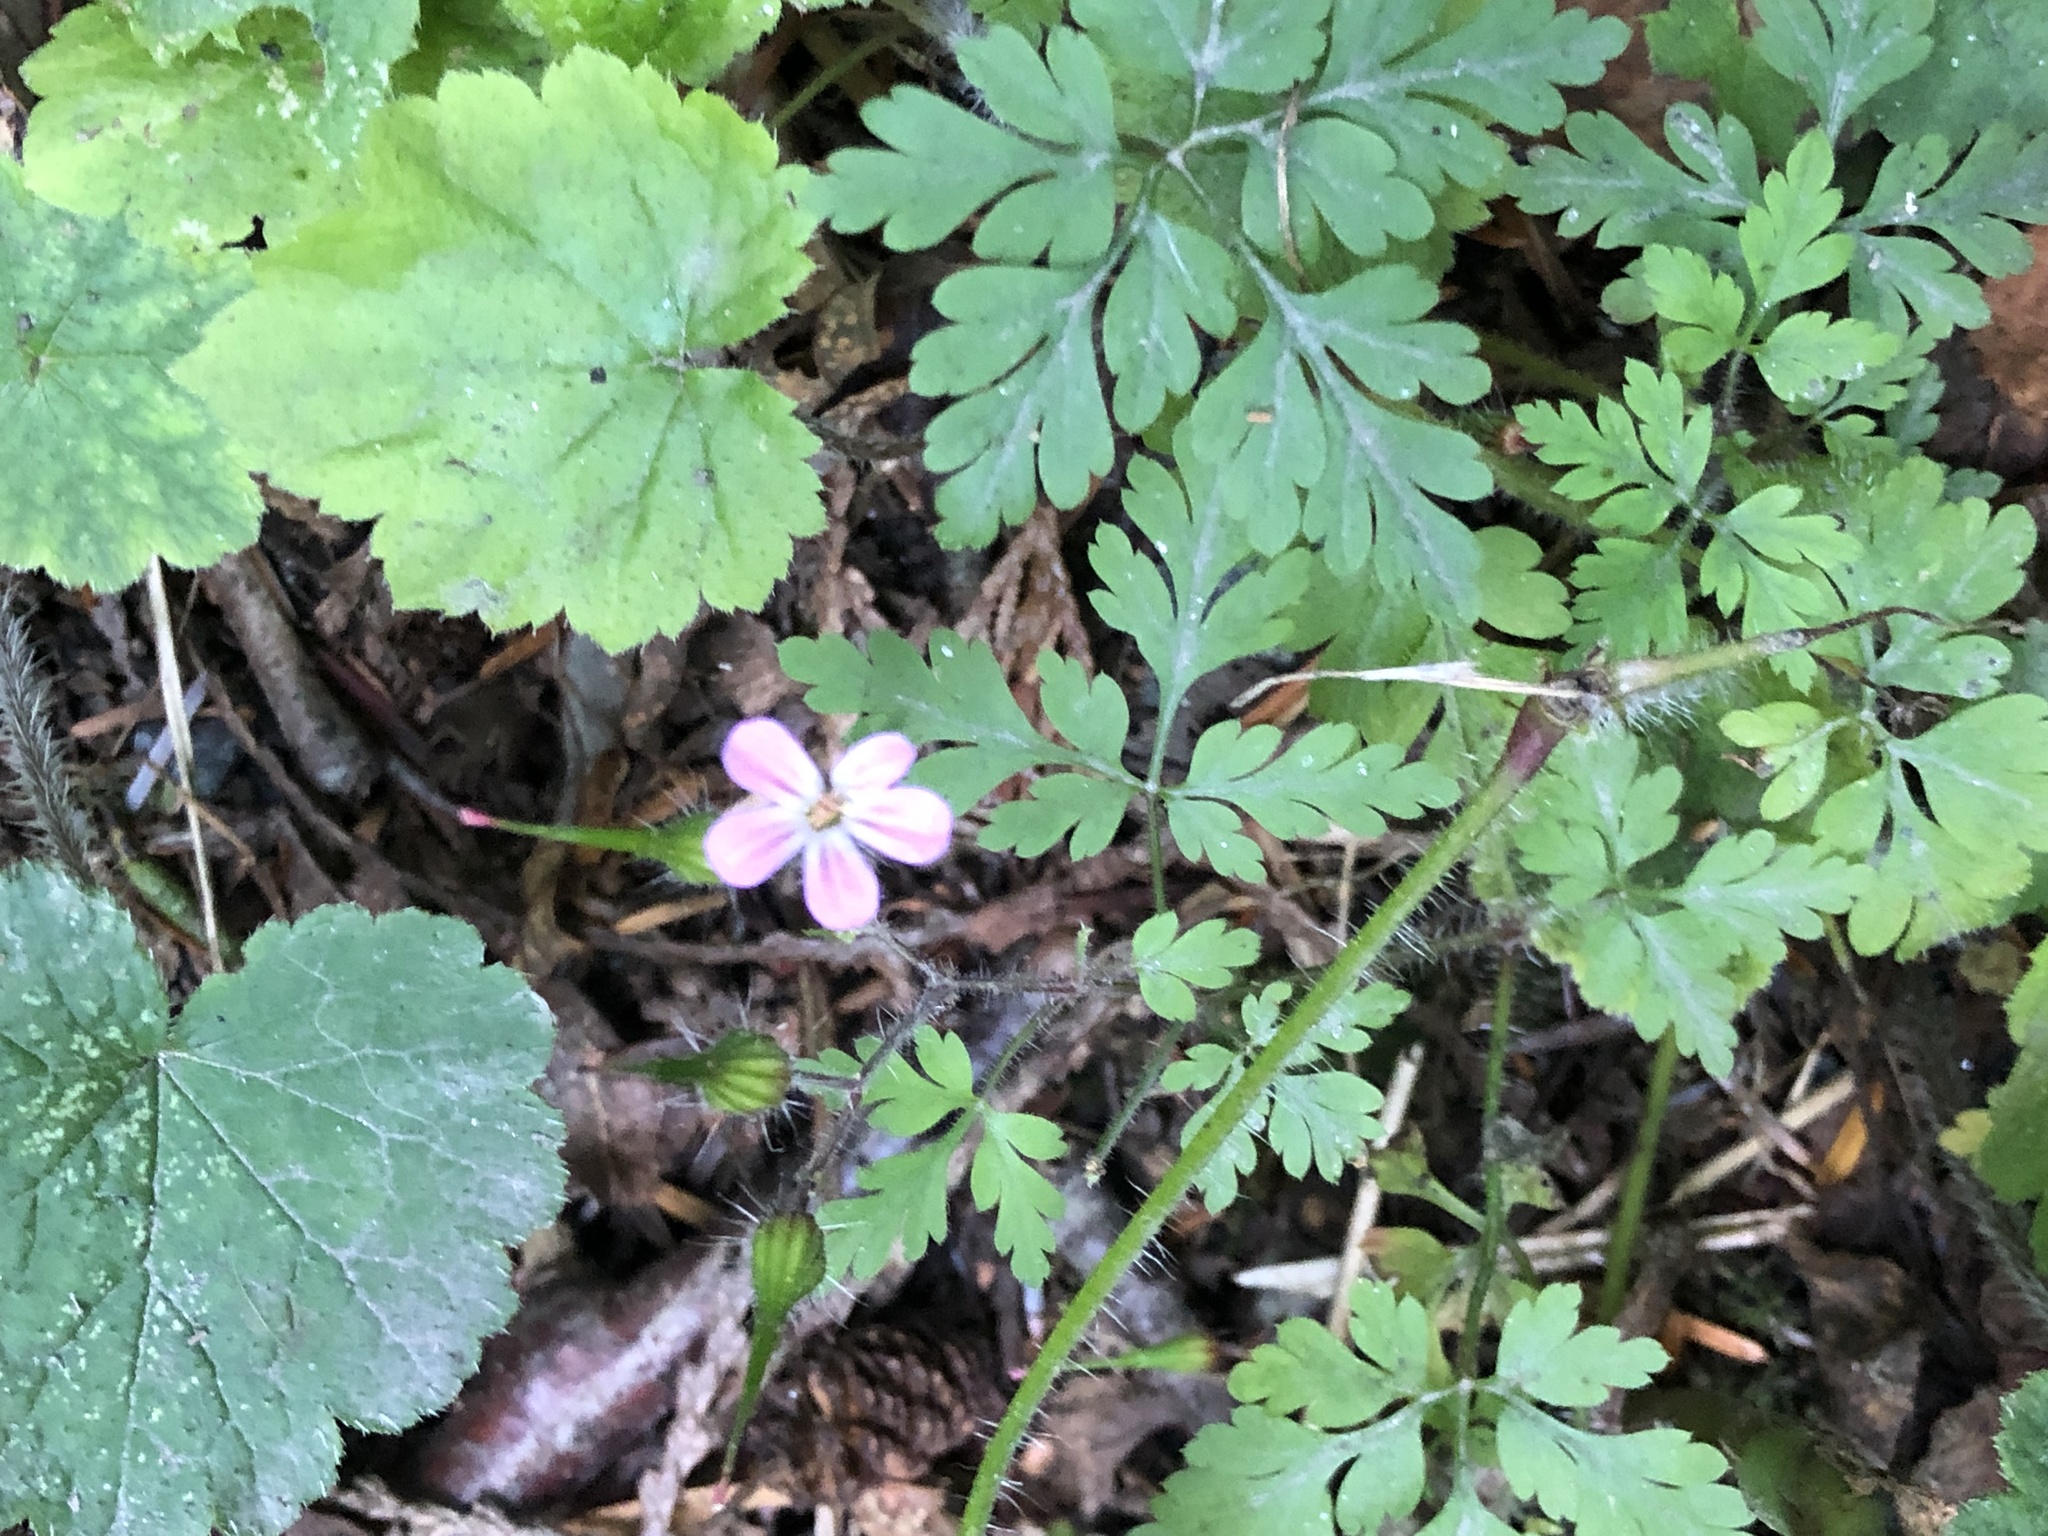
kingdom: Plantae
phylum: Tracheophyta
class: Magnoliopsida
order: Geraniales
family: Geraniaceae
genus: Geranium
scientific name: Geranium robertianum
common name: Herb-robert
